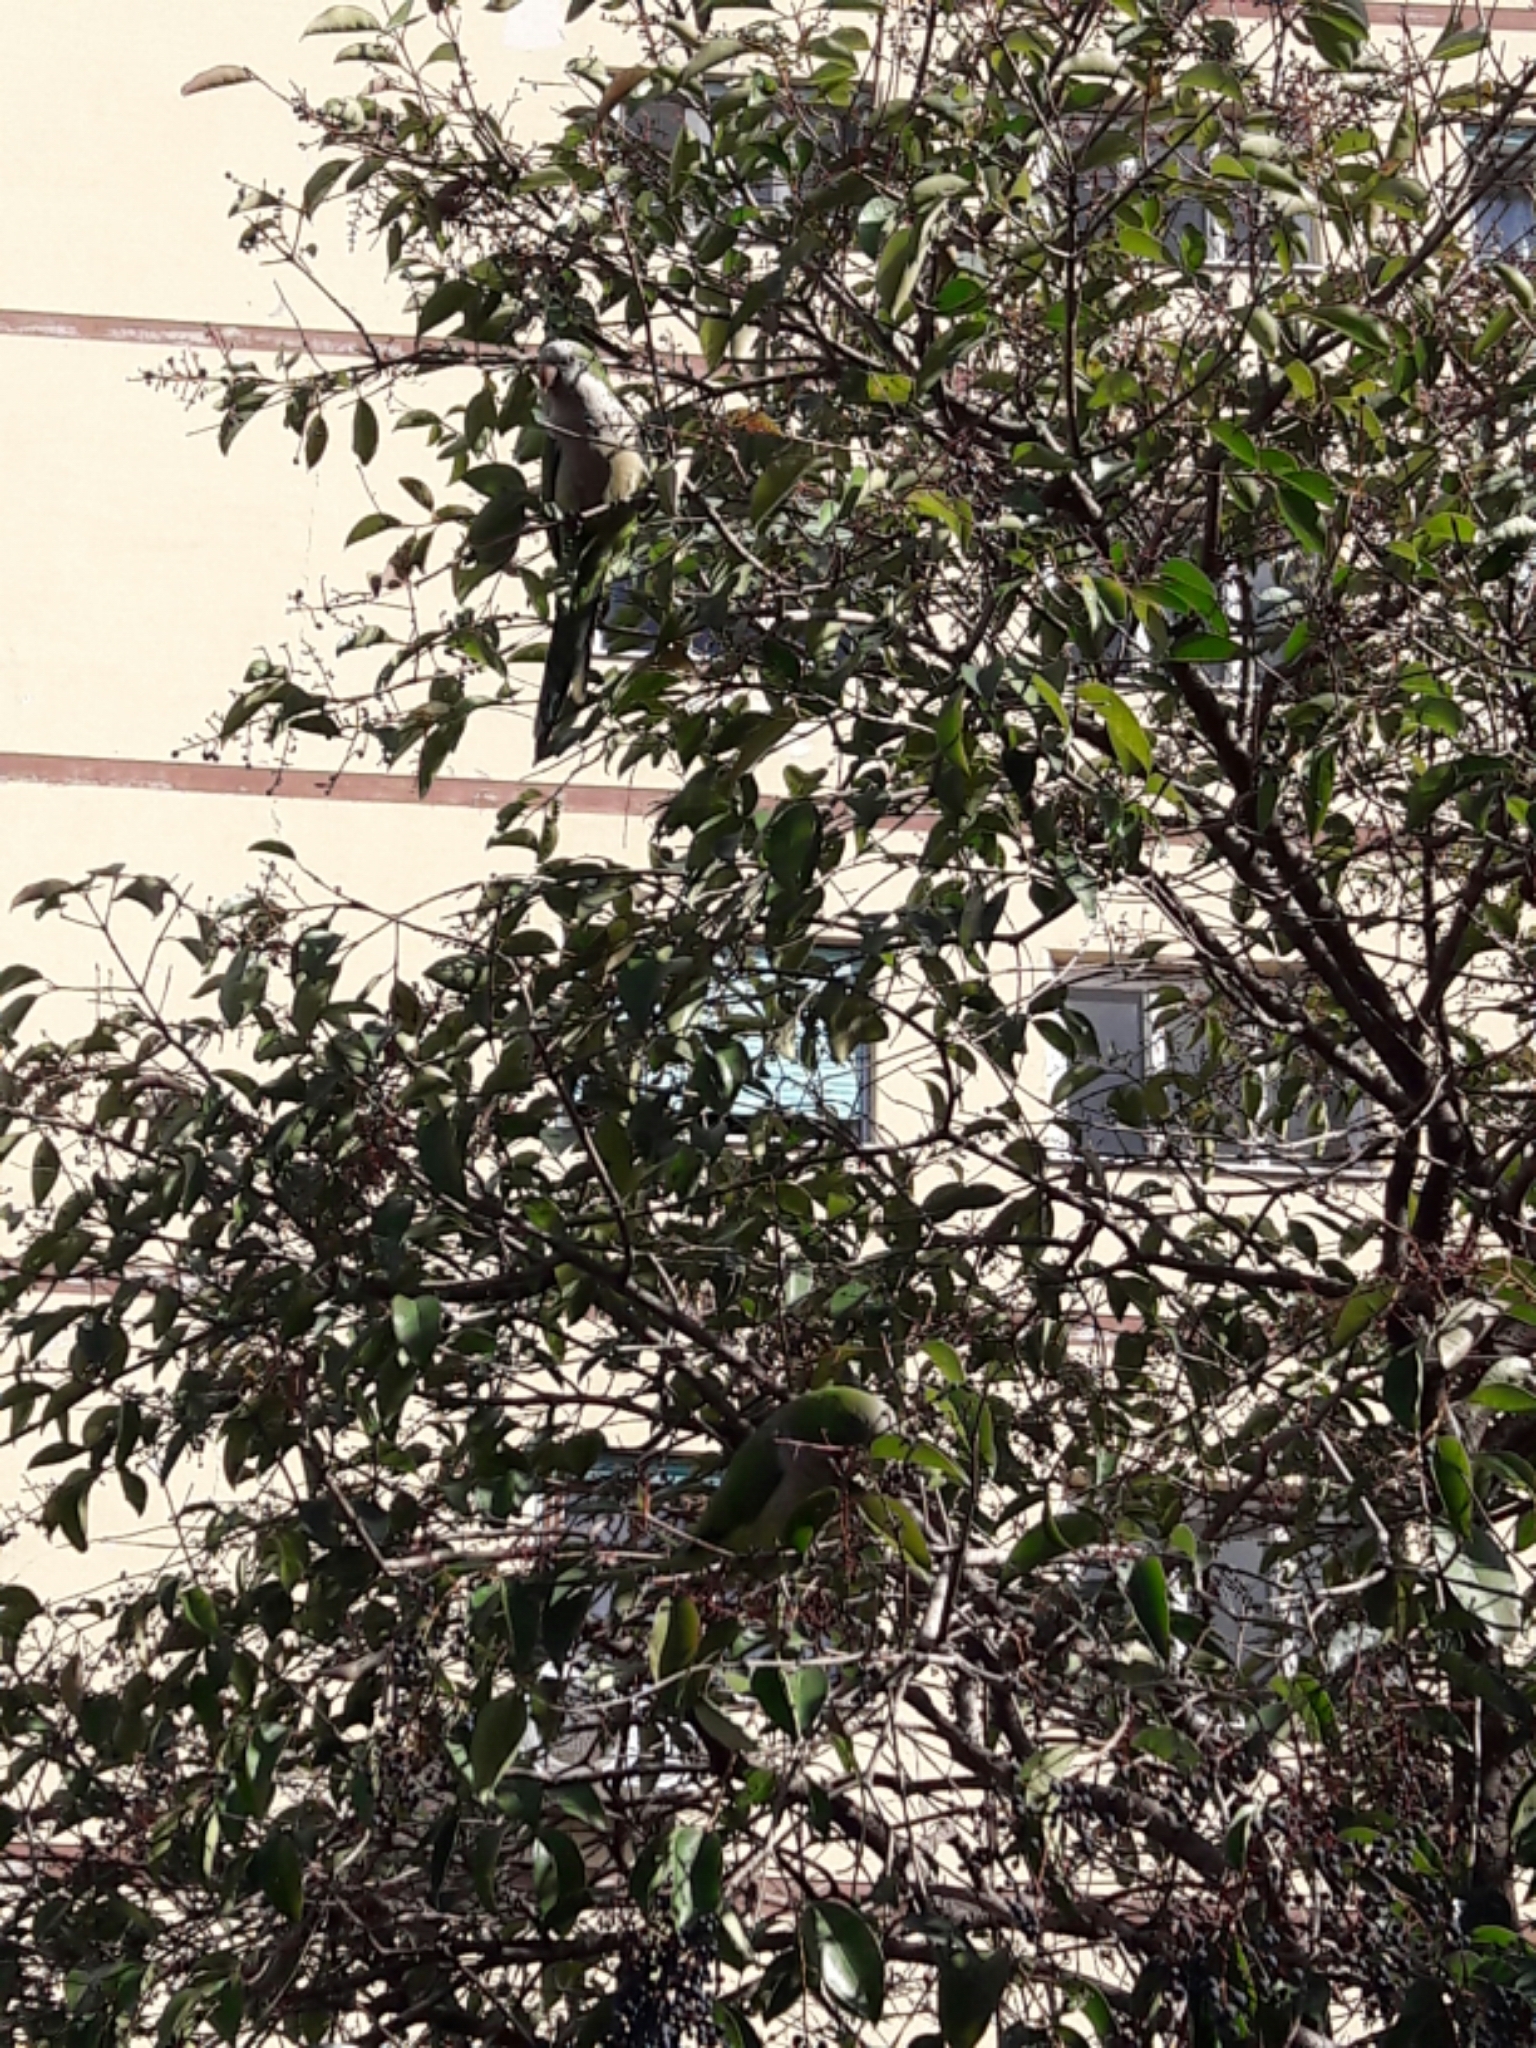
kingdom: Animalia
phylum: Chordata
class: Aves
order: Psittaciformes
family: Psittacidae
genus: Myiopsitta
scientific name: Myiopsitta monachus
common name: Monk parakeet
